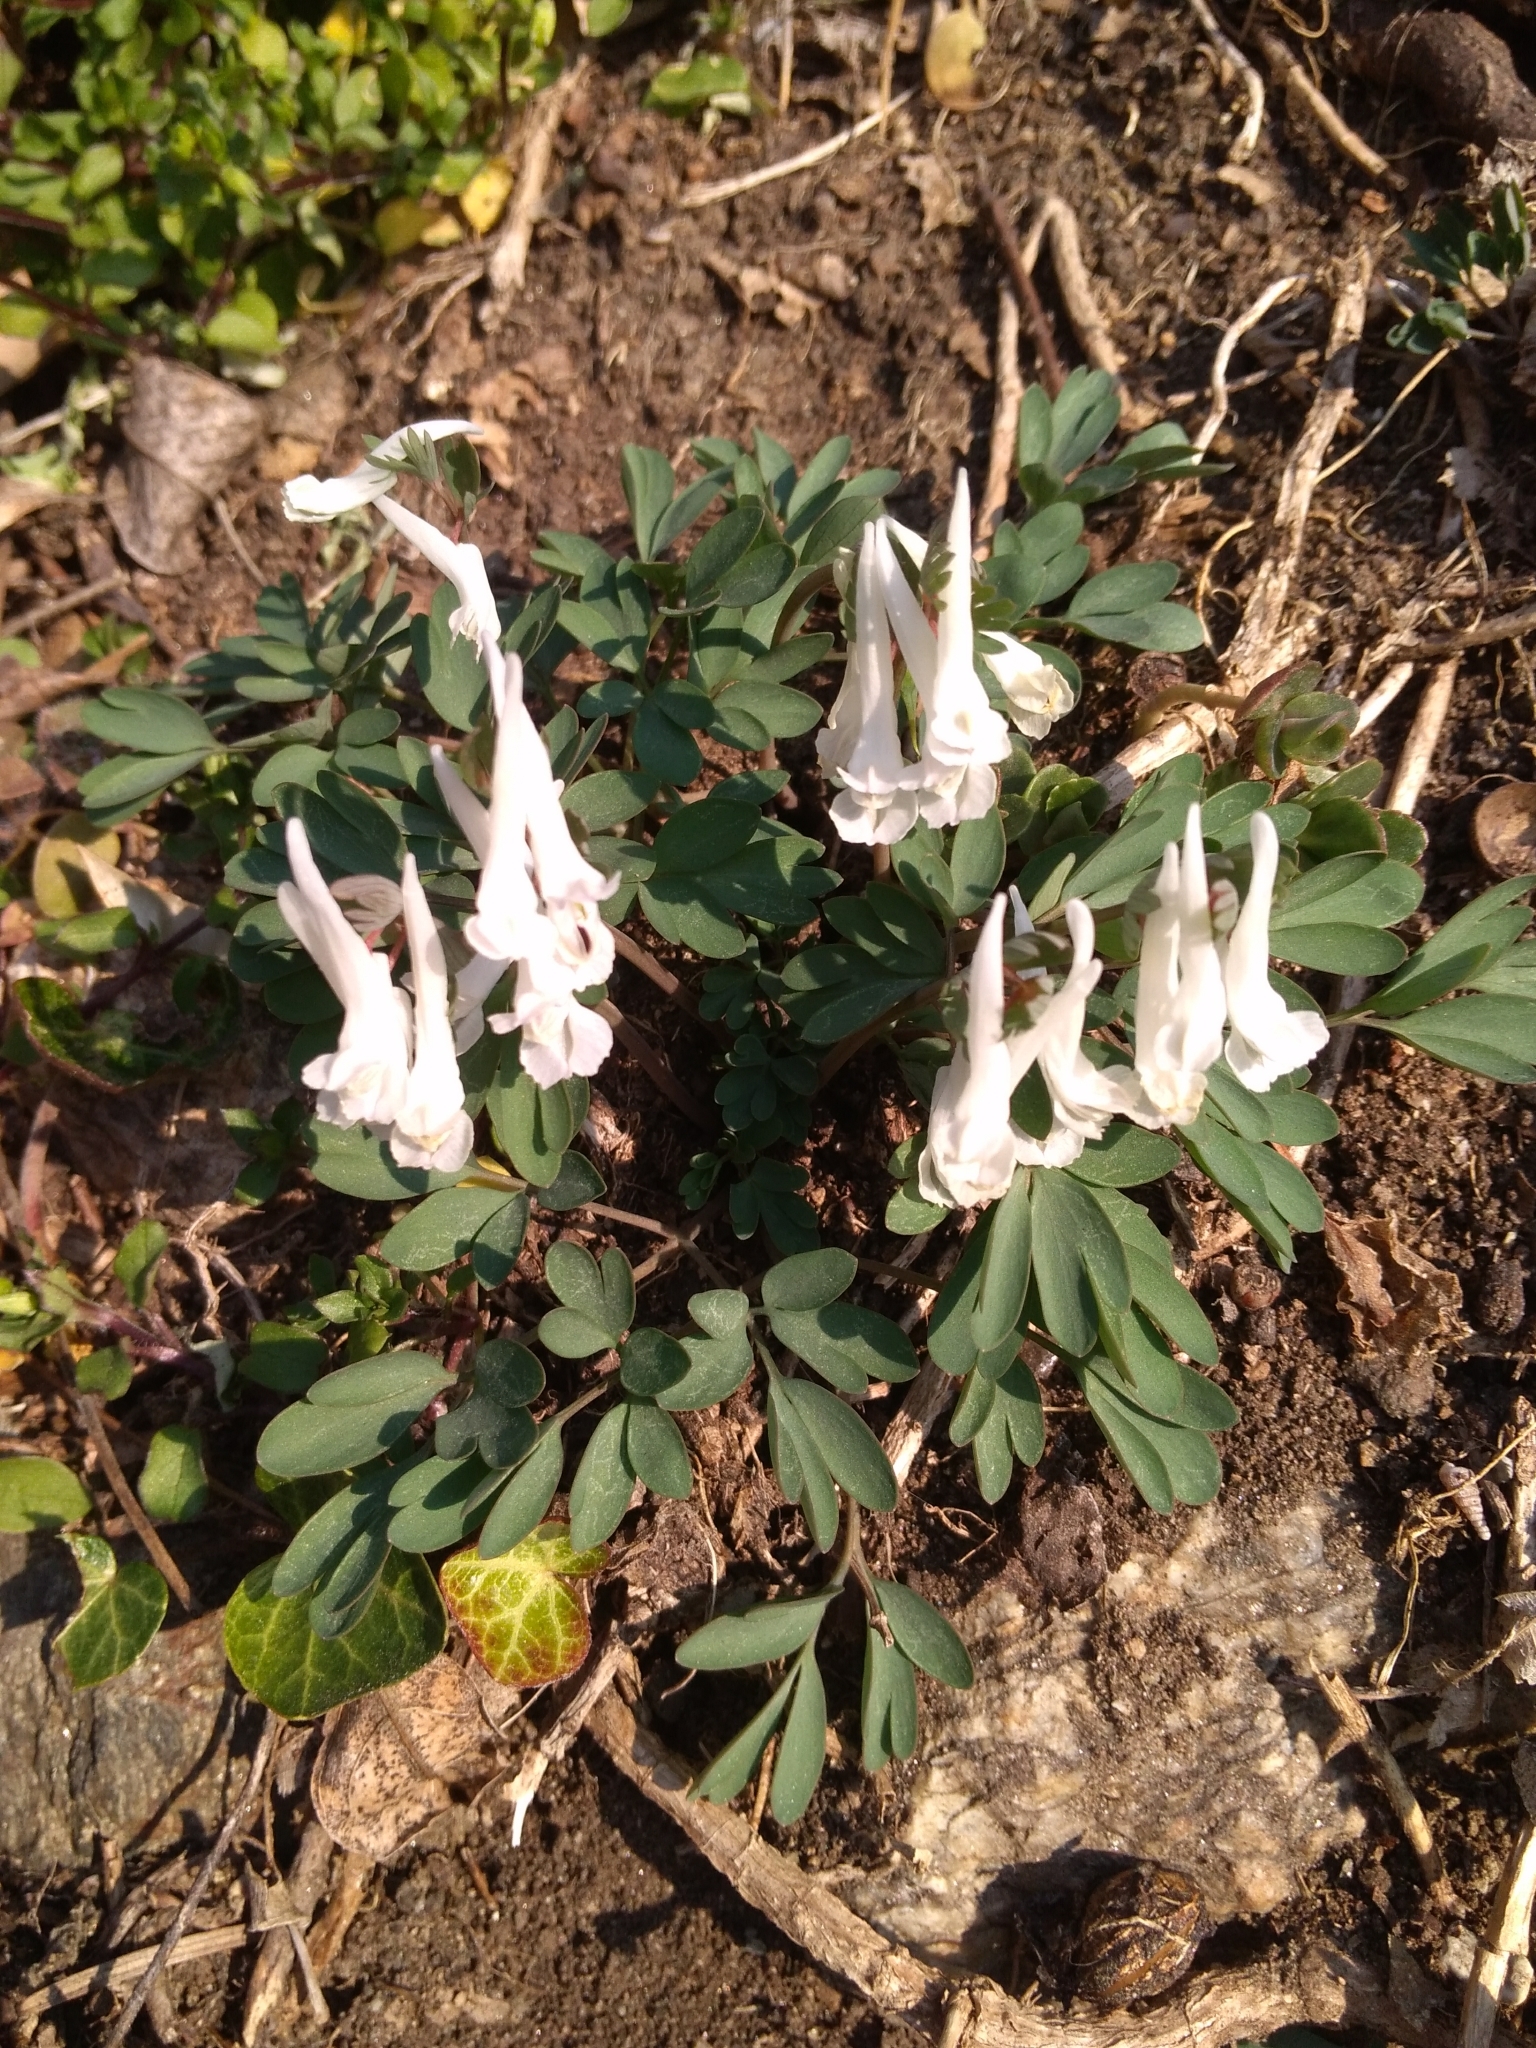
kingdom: Plantae
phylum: Tracheophyta
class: Magnoliopsida
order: Ranunculales
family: Papaveraceae
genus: Corydalis
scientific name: Corydalis solida
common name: Bird-in-a-bush
